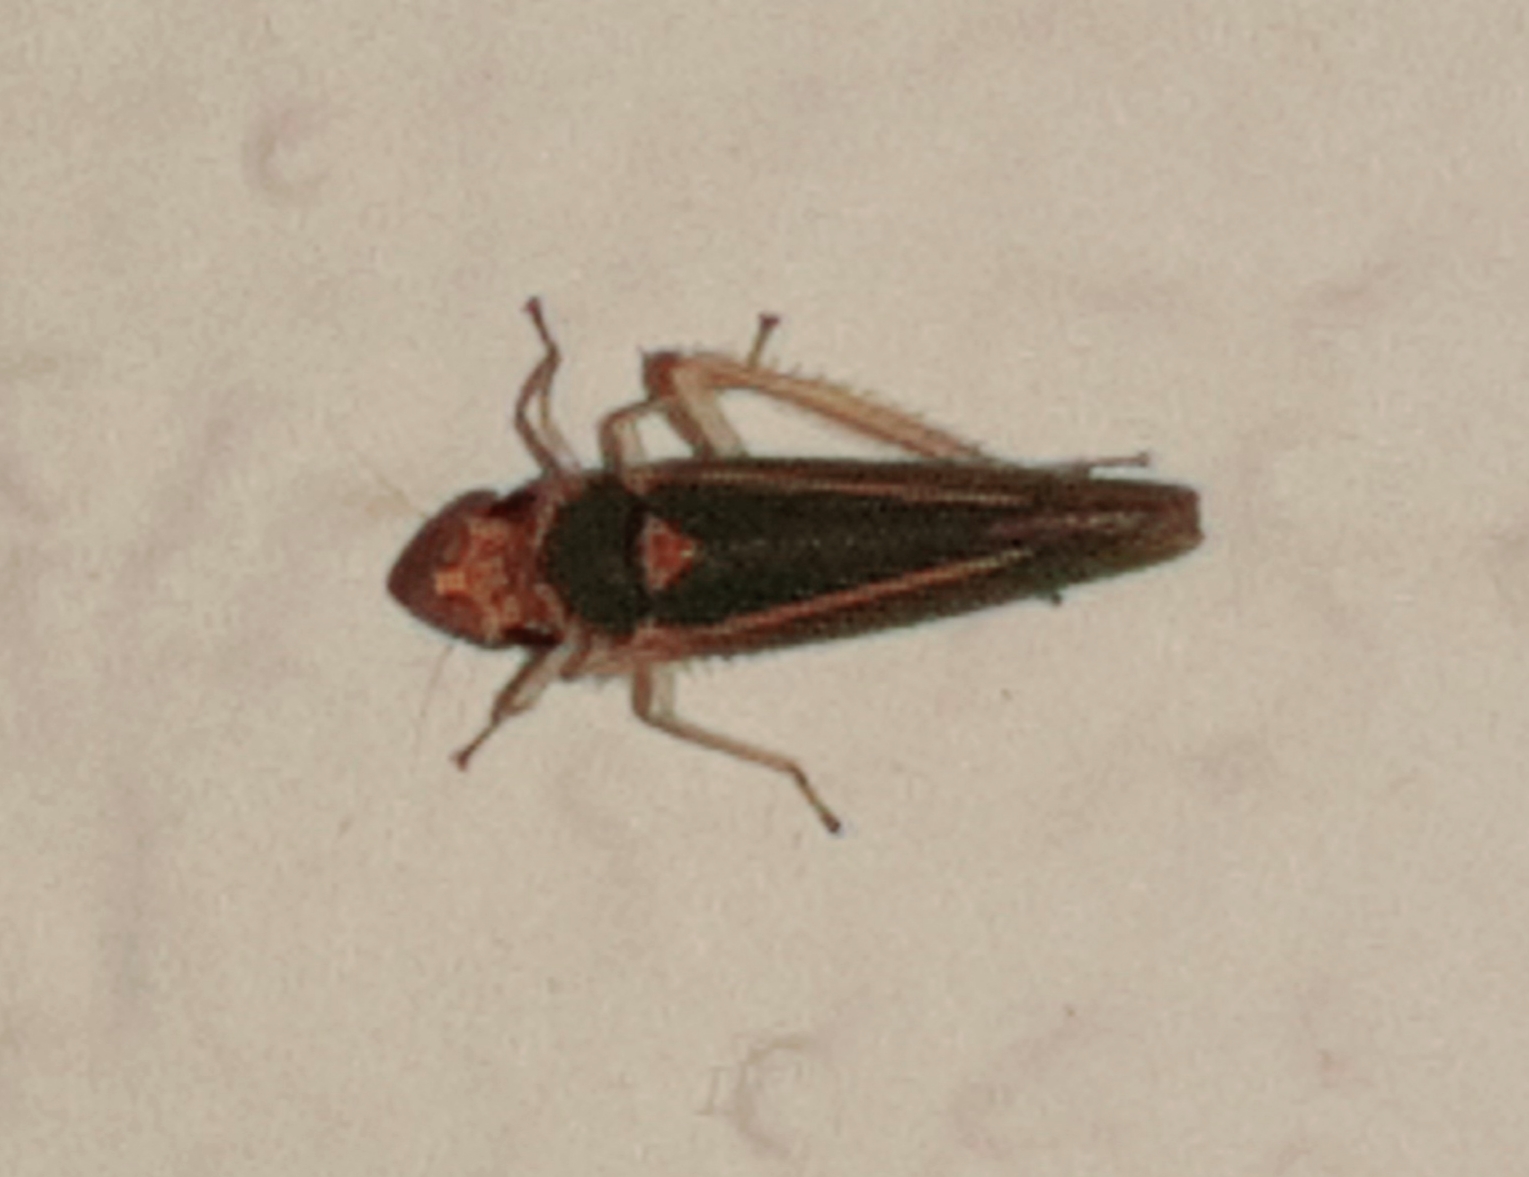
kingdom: Animalia
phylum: Arthropoda
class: Insecta
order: Hemiptera
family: Cicadellidae
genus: Graphocephala
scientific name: Graphocephala aurolineata
